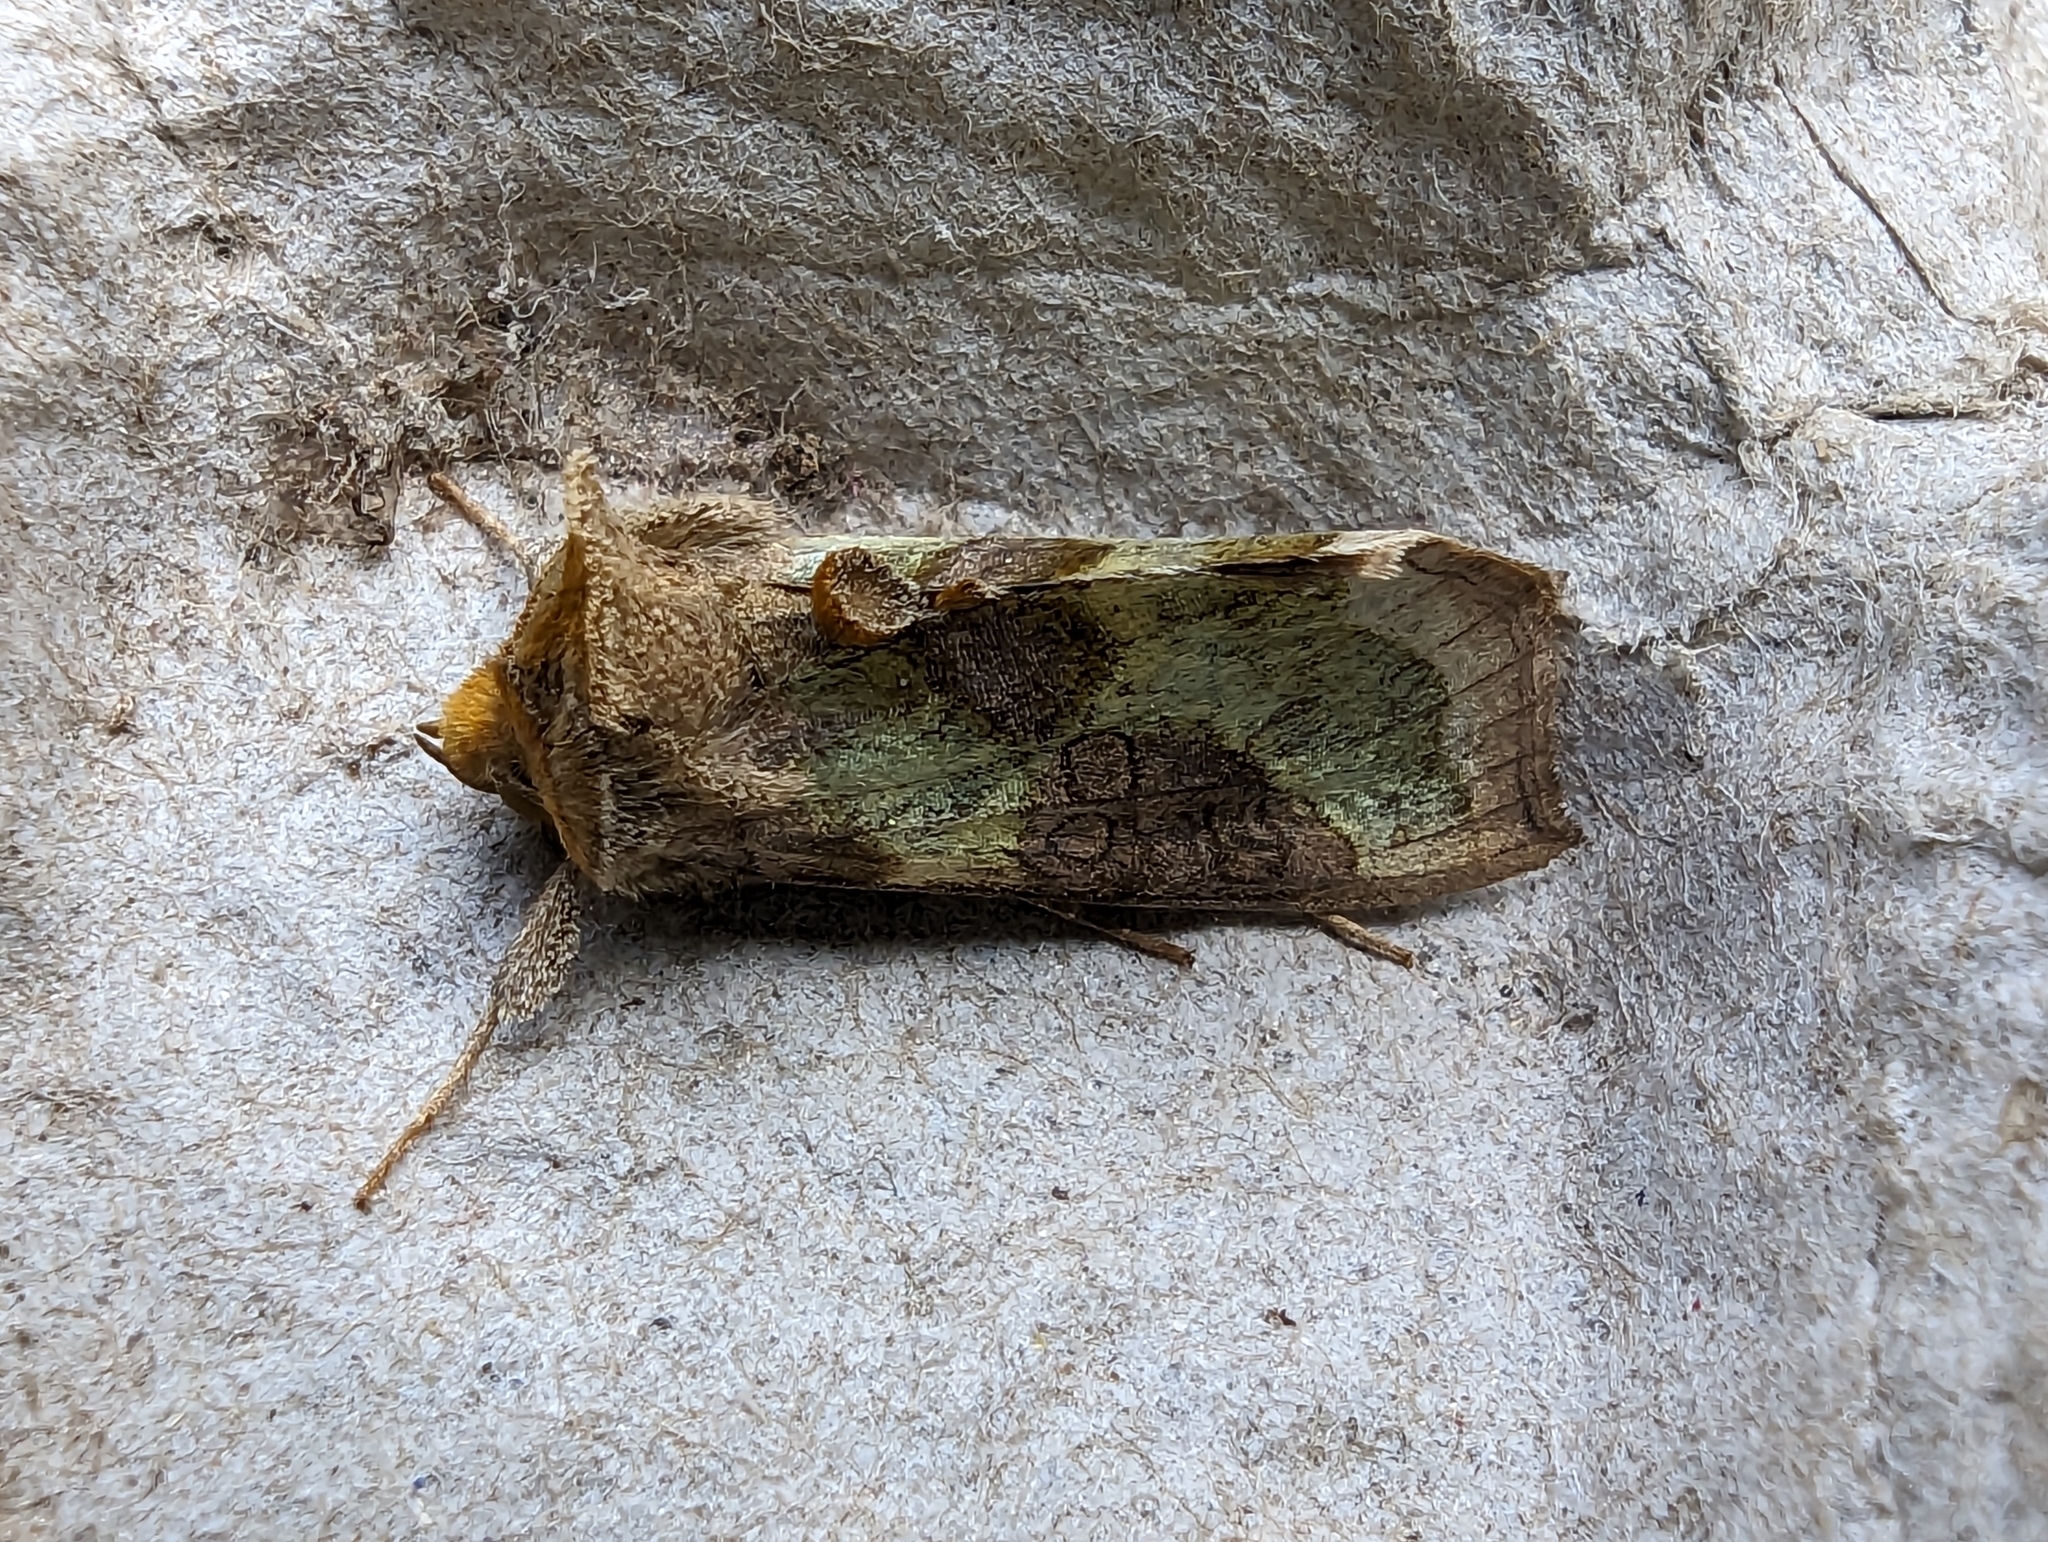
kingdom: Animalia
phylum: Arthropoda
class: Insecta
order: Lepidoptera
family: Noctuidae
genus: Diachrysia
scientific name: Diachrysia chrysitis
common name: Burnished brass
